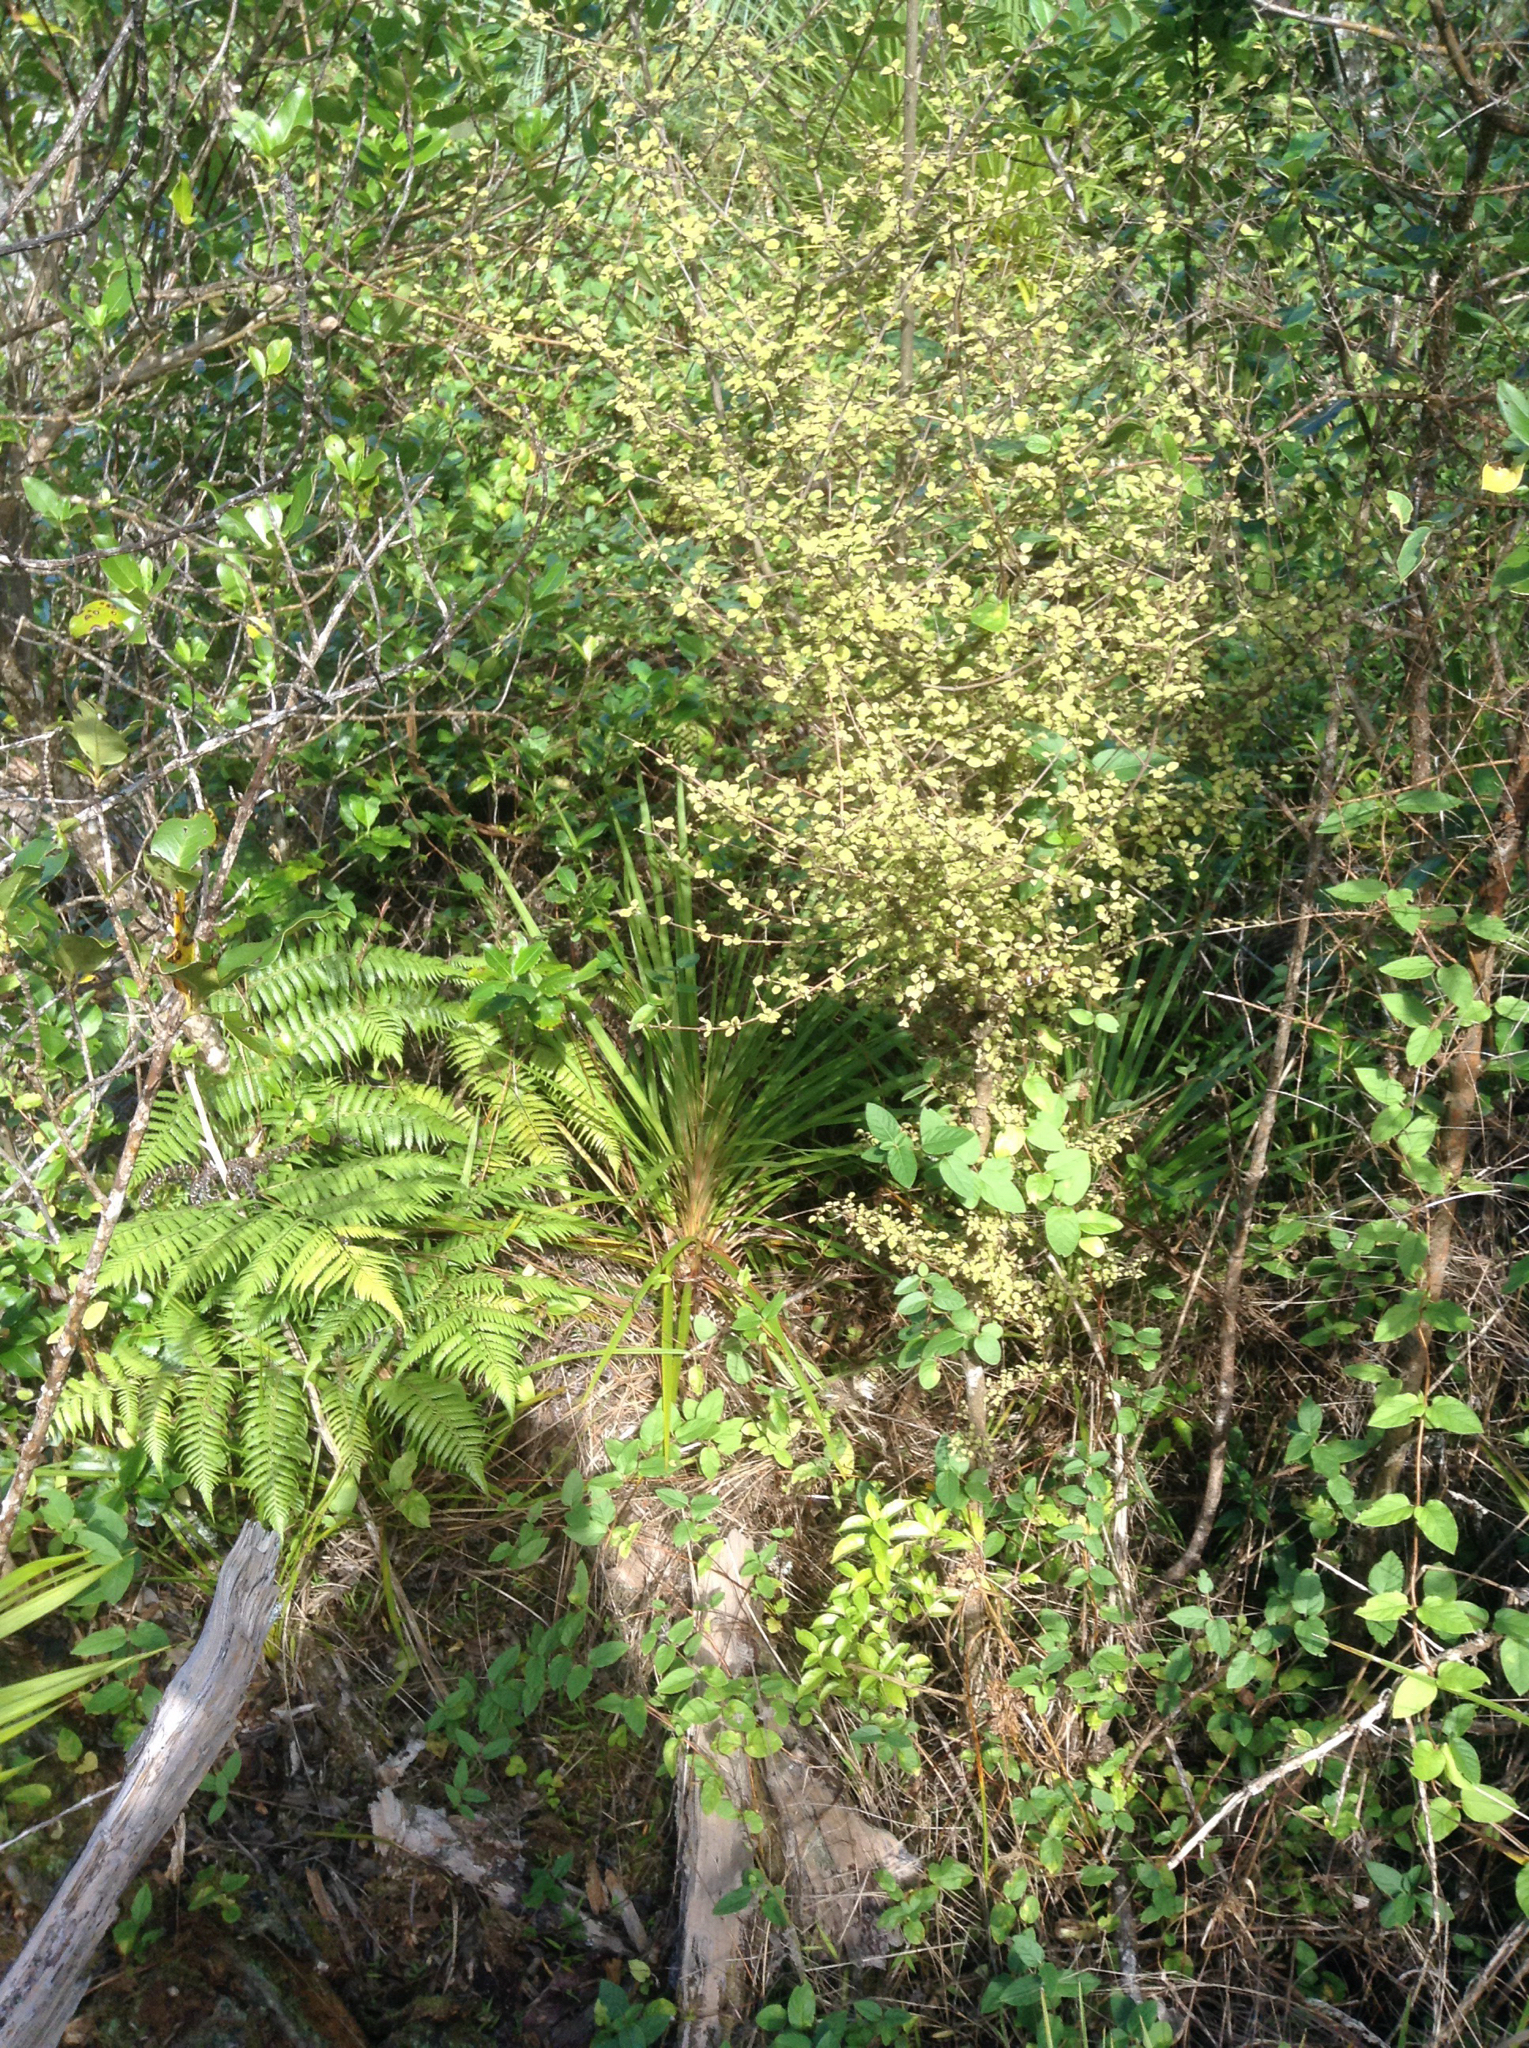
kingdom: Plantae
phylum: Tracheophyta
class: Magnoliopsida
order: Gentianales
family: Rubiaceae
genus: Coprosma
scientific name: Coprosma areolata
